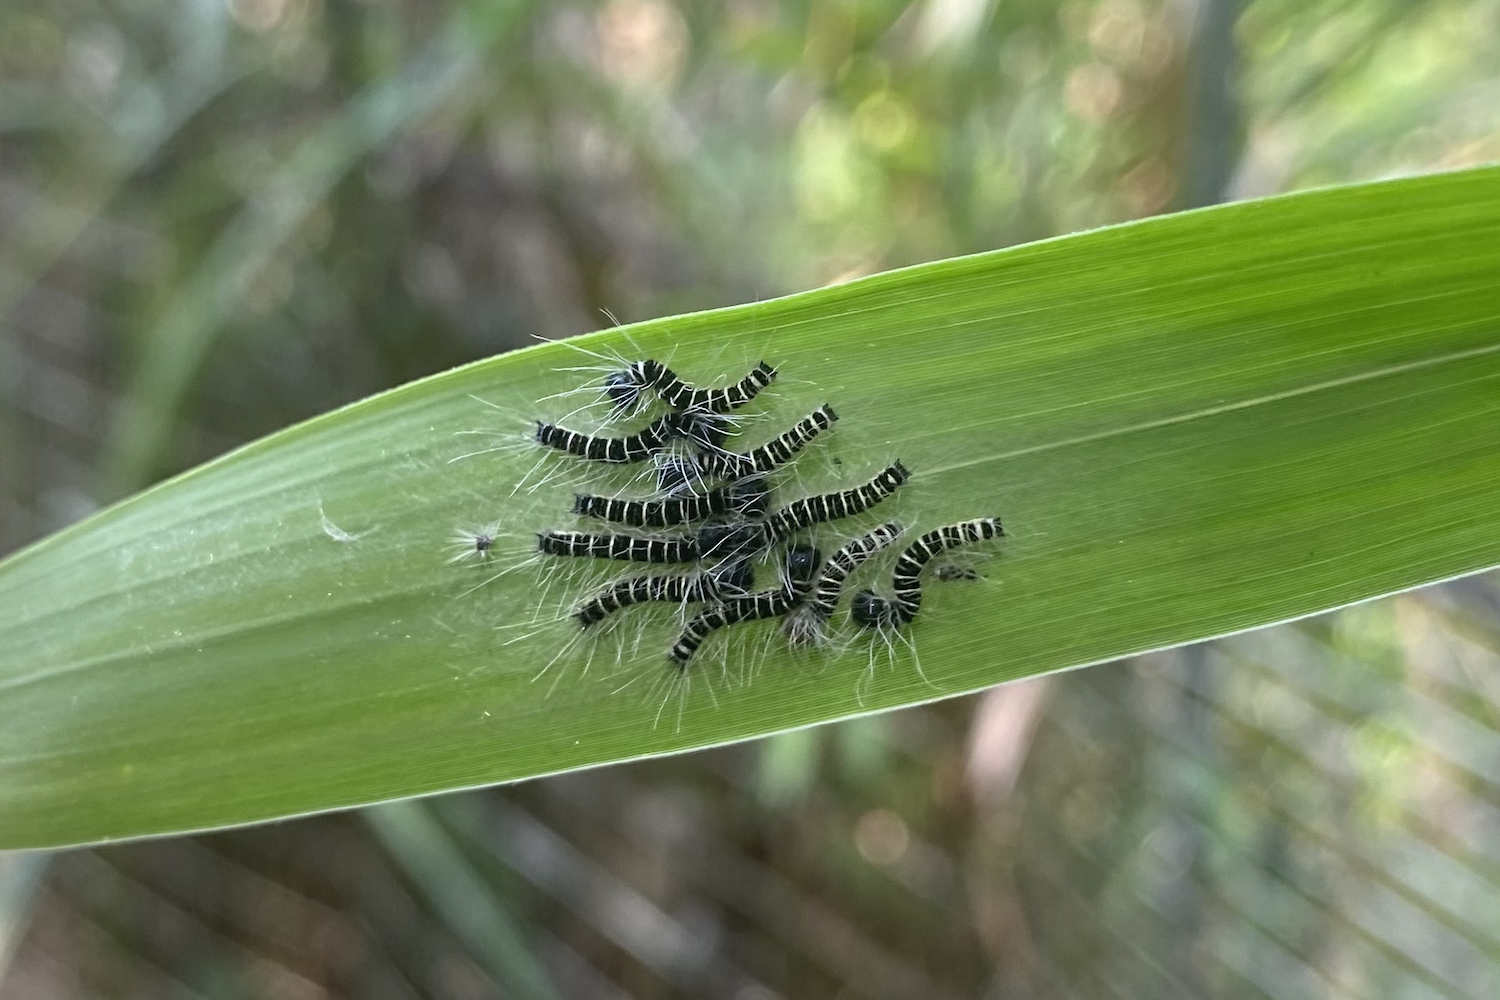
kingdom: Animalia
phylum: Arthropoda
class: Insecta
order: Lepidoptera
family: Nymphalidae
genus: Discophora
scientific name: Discophora sondaica
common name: Common duffer
